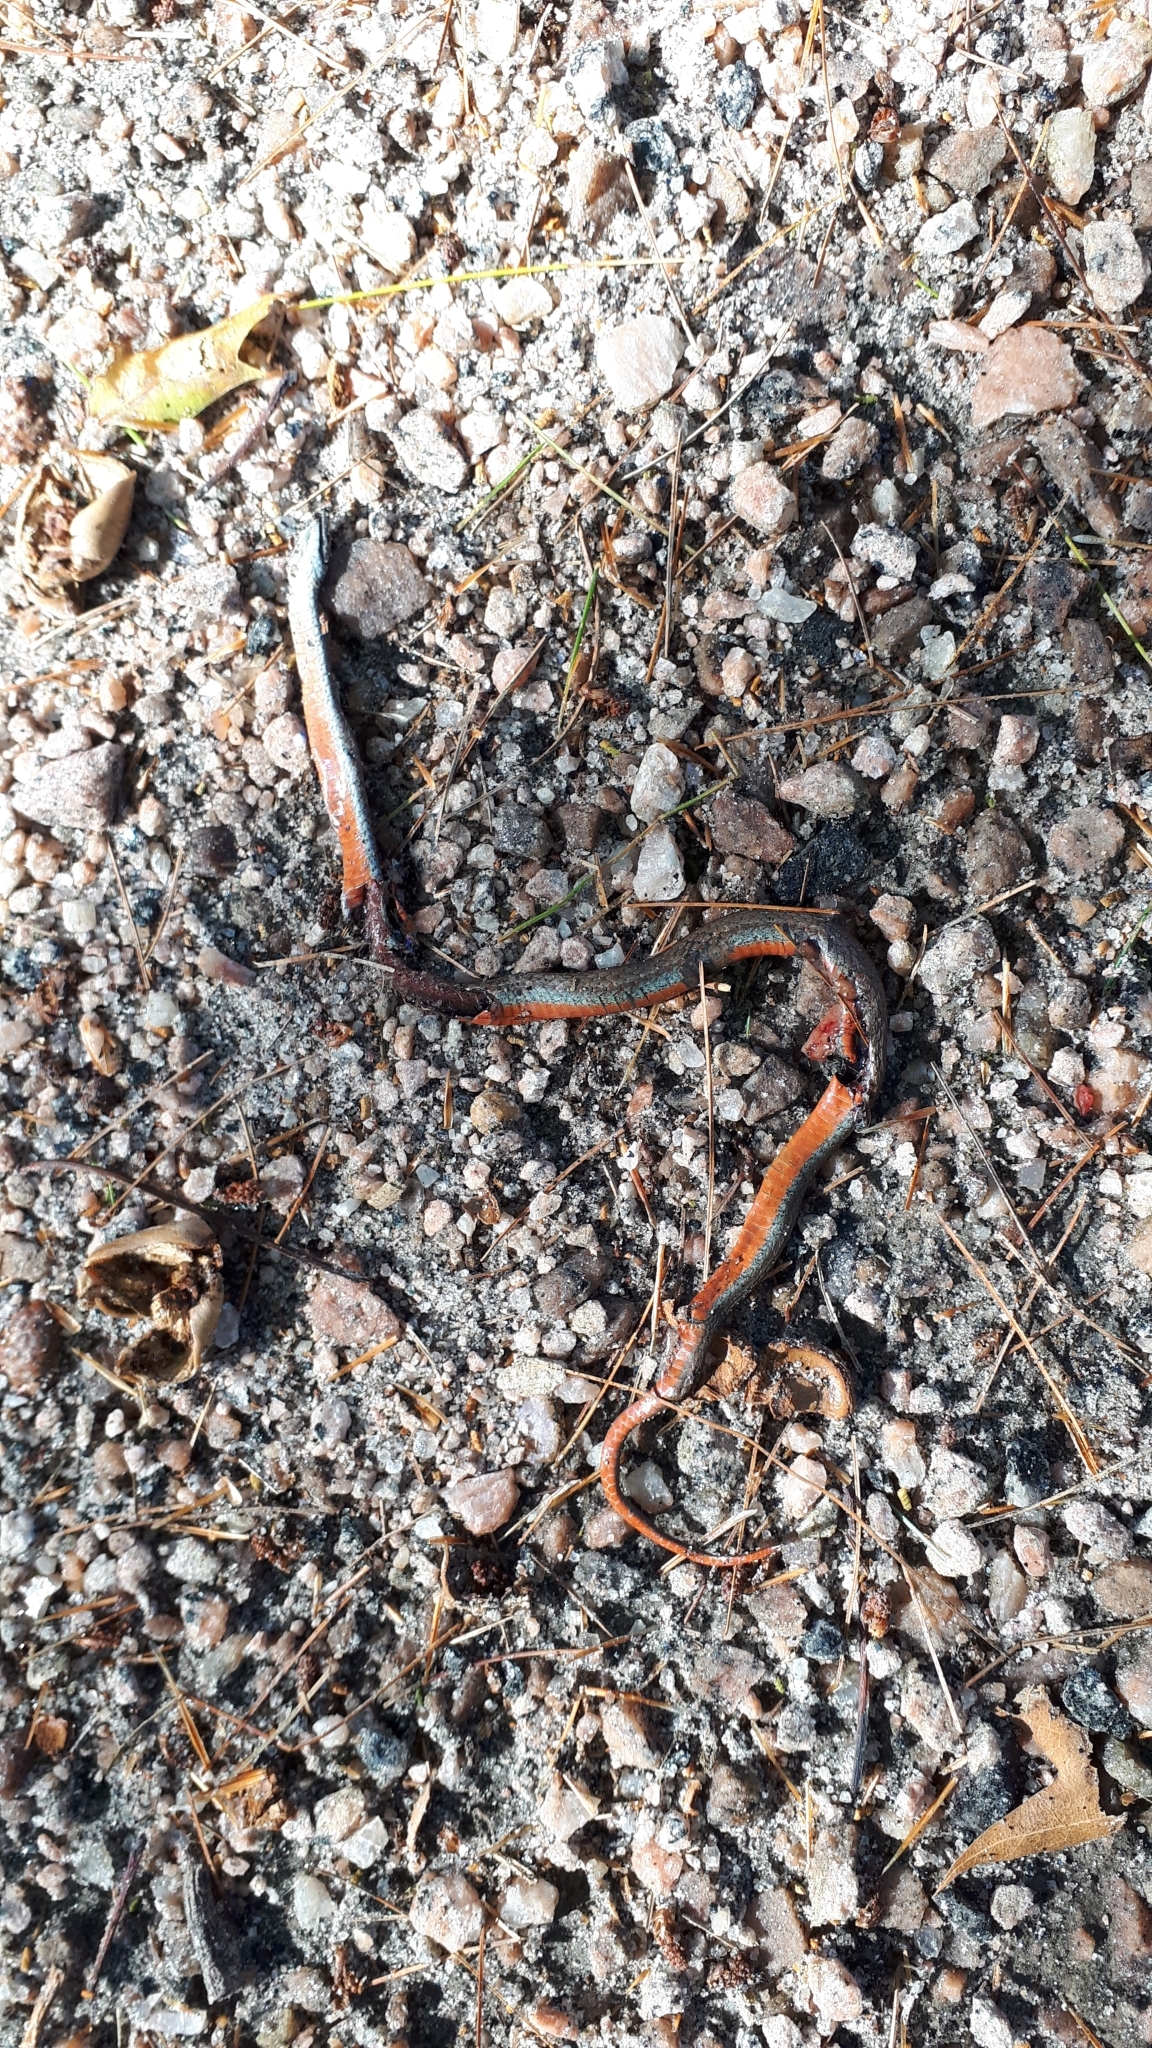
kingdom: Animalia
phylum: Chordata
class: Squamata
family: Colubridae
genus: Storeria
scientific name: Storeria occipitomaculata
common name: Redbelly snake
